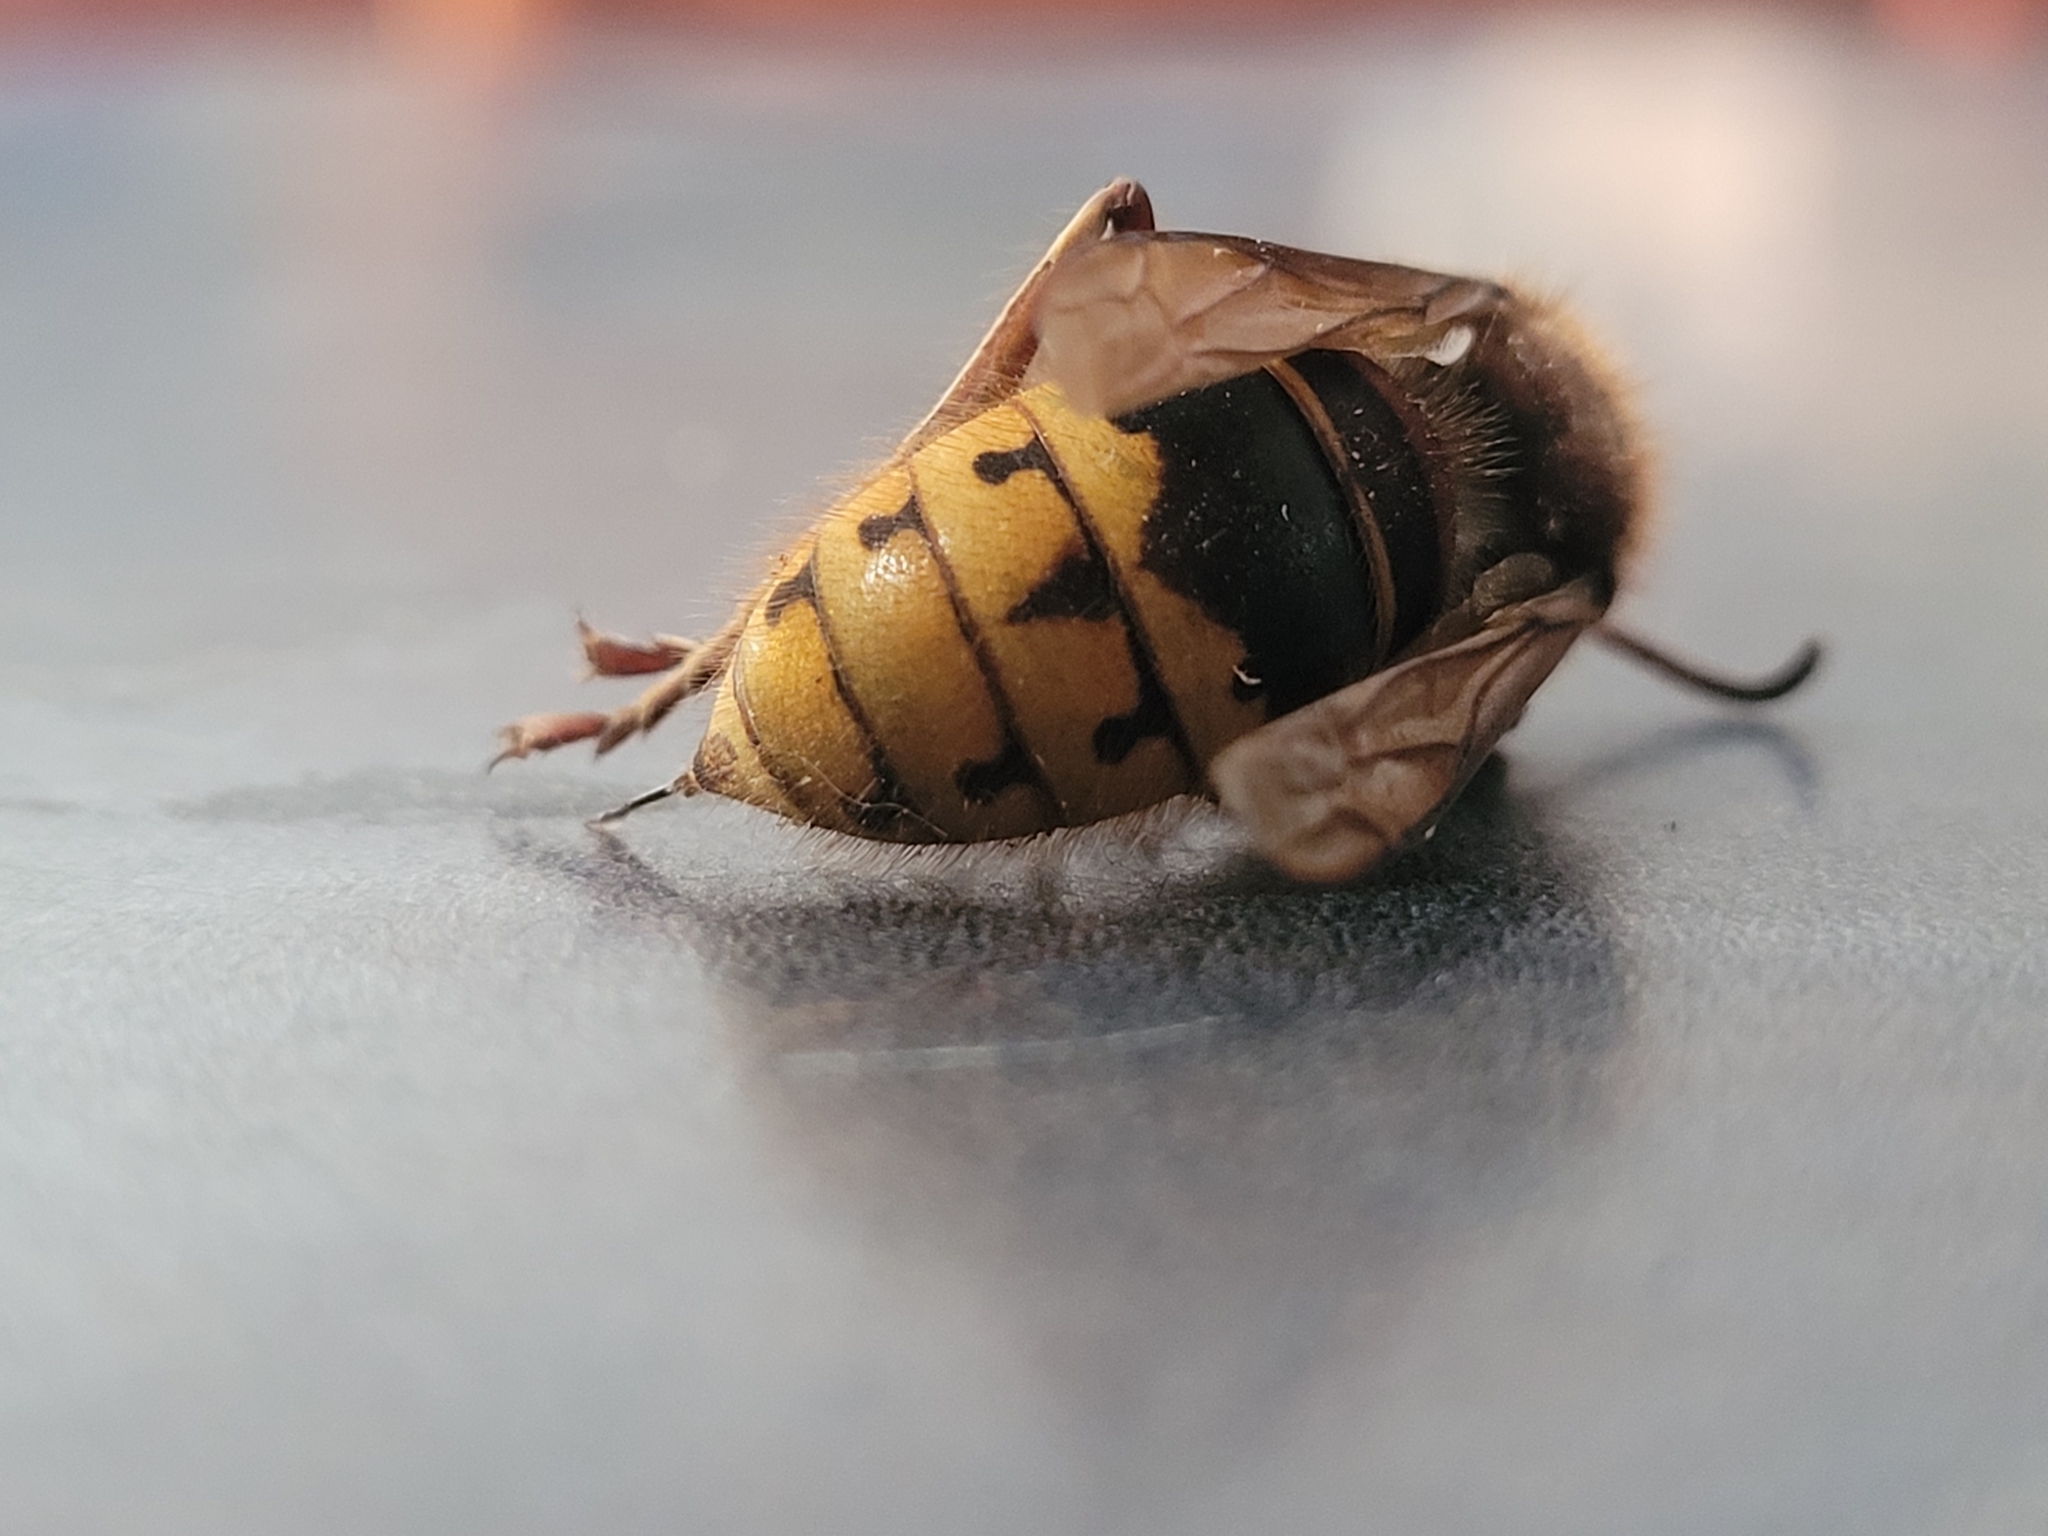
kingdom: Animalia
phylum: Arthropoda
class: Insecta
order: Hymenoptera
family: Vespidae
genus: Vespa
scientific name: Vespa crabro
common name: Hornet
